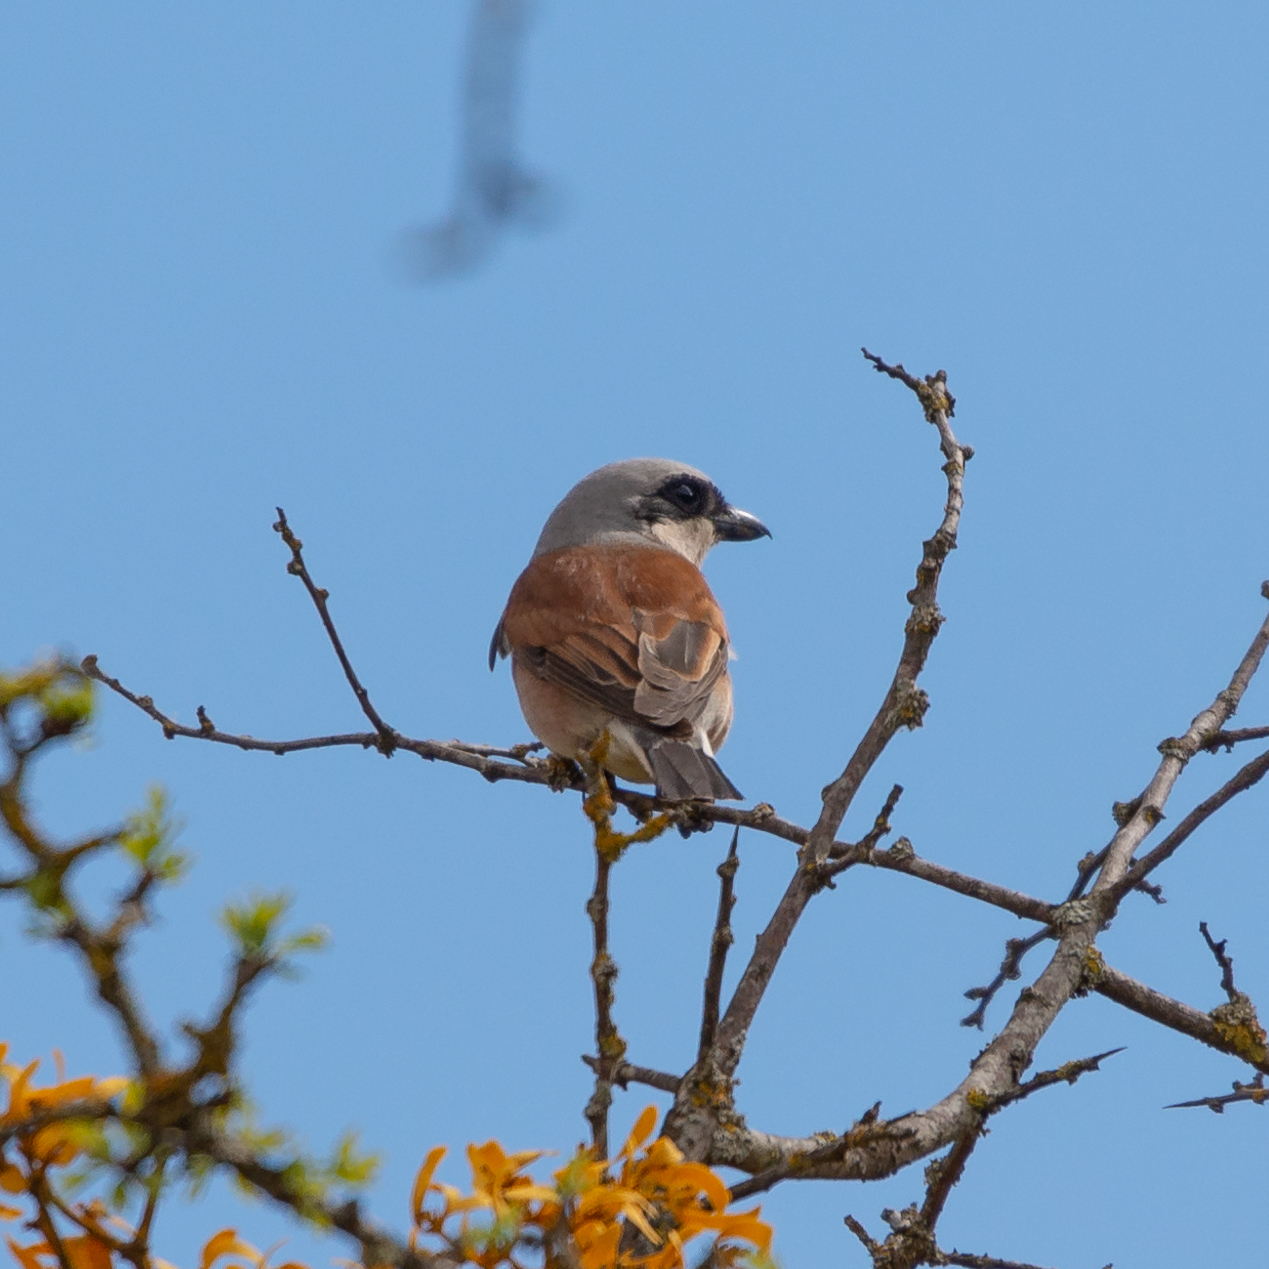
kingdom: Animalia
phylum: Chordata
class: Aves
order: Passeriformes
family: Laniidae
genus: Lanius
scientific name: Lanius collurio
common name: Red-backed shrike
